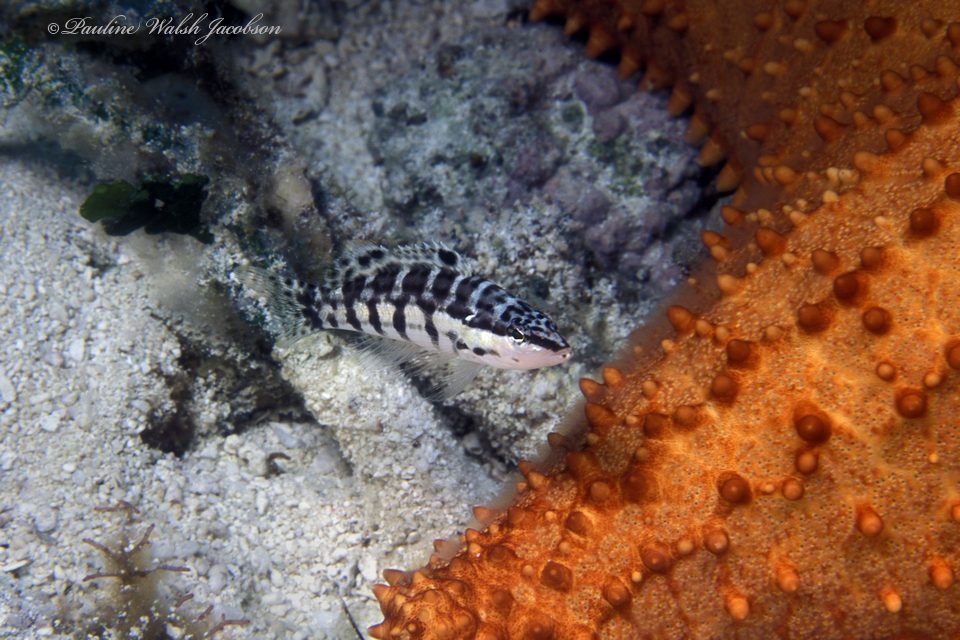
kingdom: Animalia
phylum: Chordata
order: Perciformes
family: Serranidae
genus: Serranus
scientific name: Serranus tigrinus
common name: Harlequin bass
